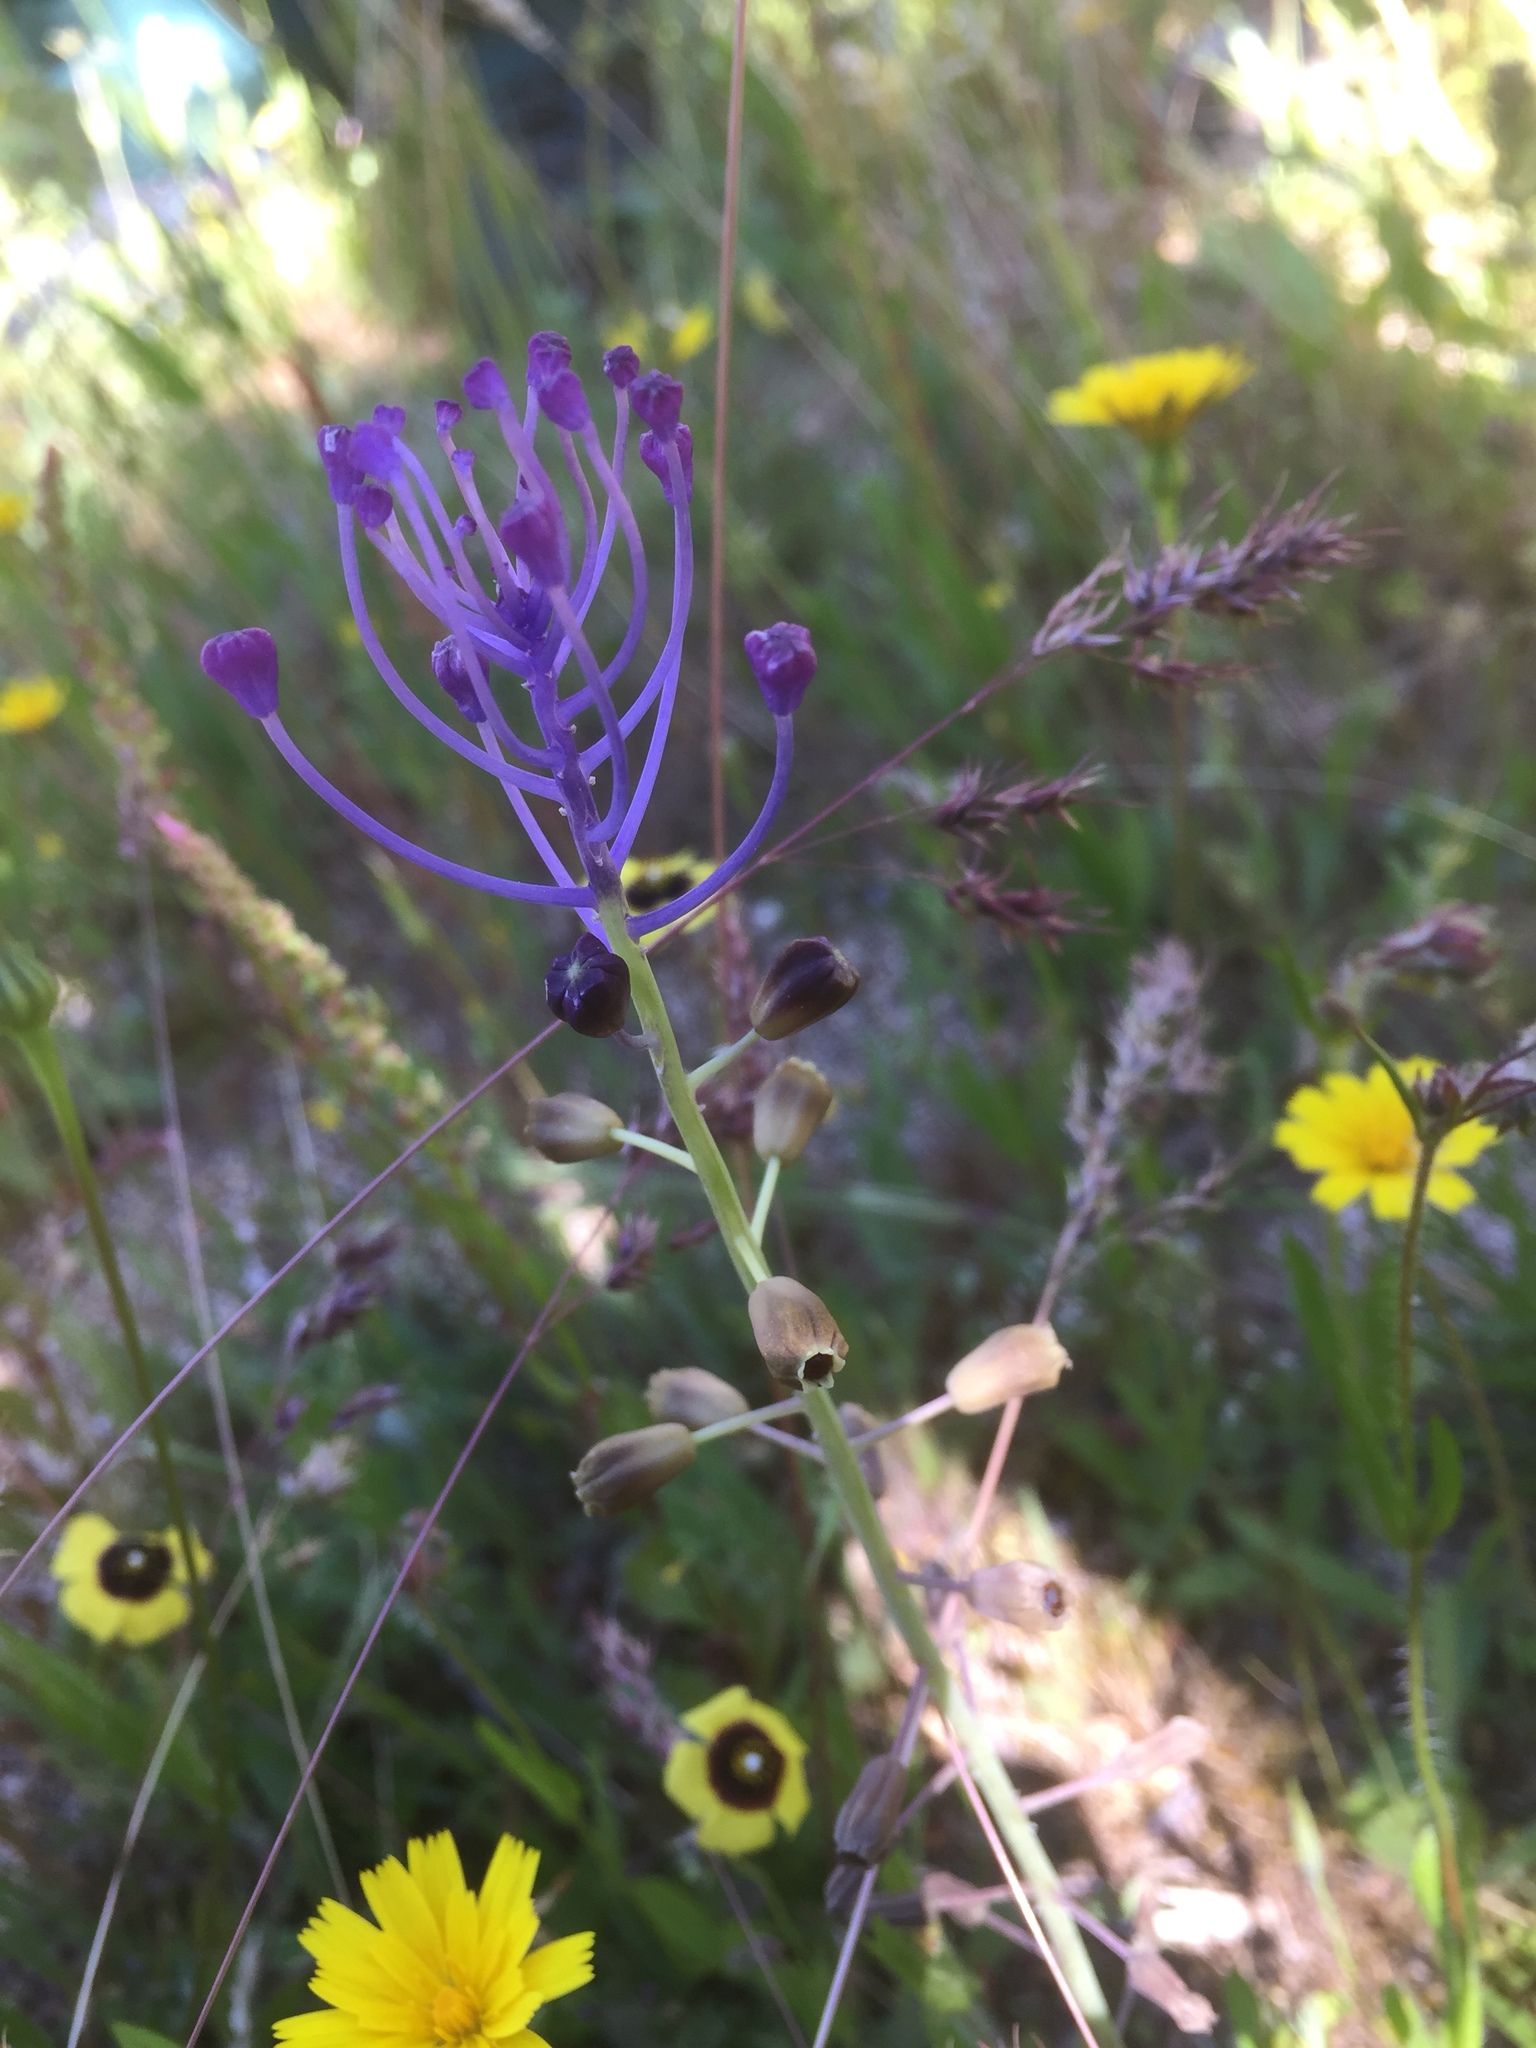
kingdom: Plantae
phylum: Tracheophyta
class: Liliopsida
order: Asparagales
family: Asparagaceae
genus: Muscari
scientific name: Muscari comosum
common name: Tassel hyacinth
